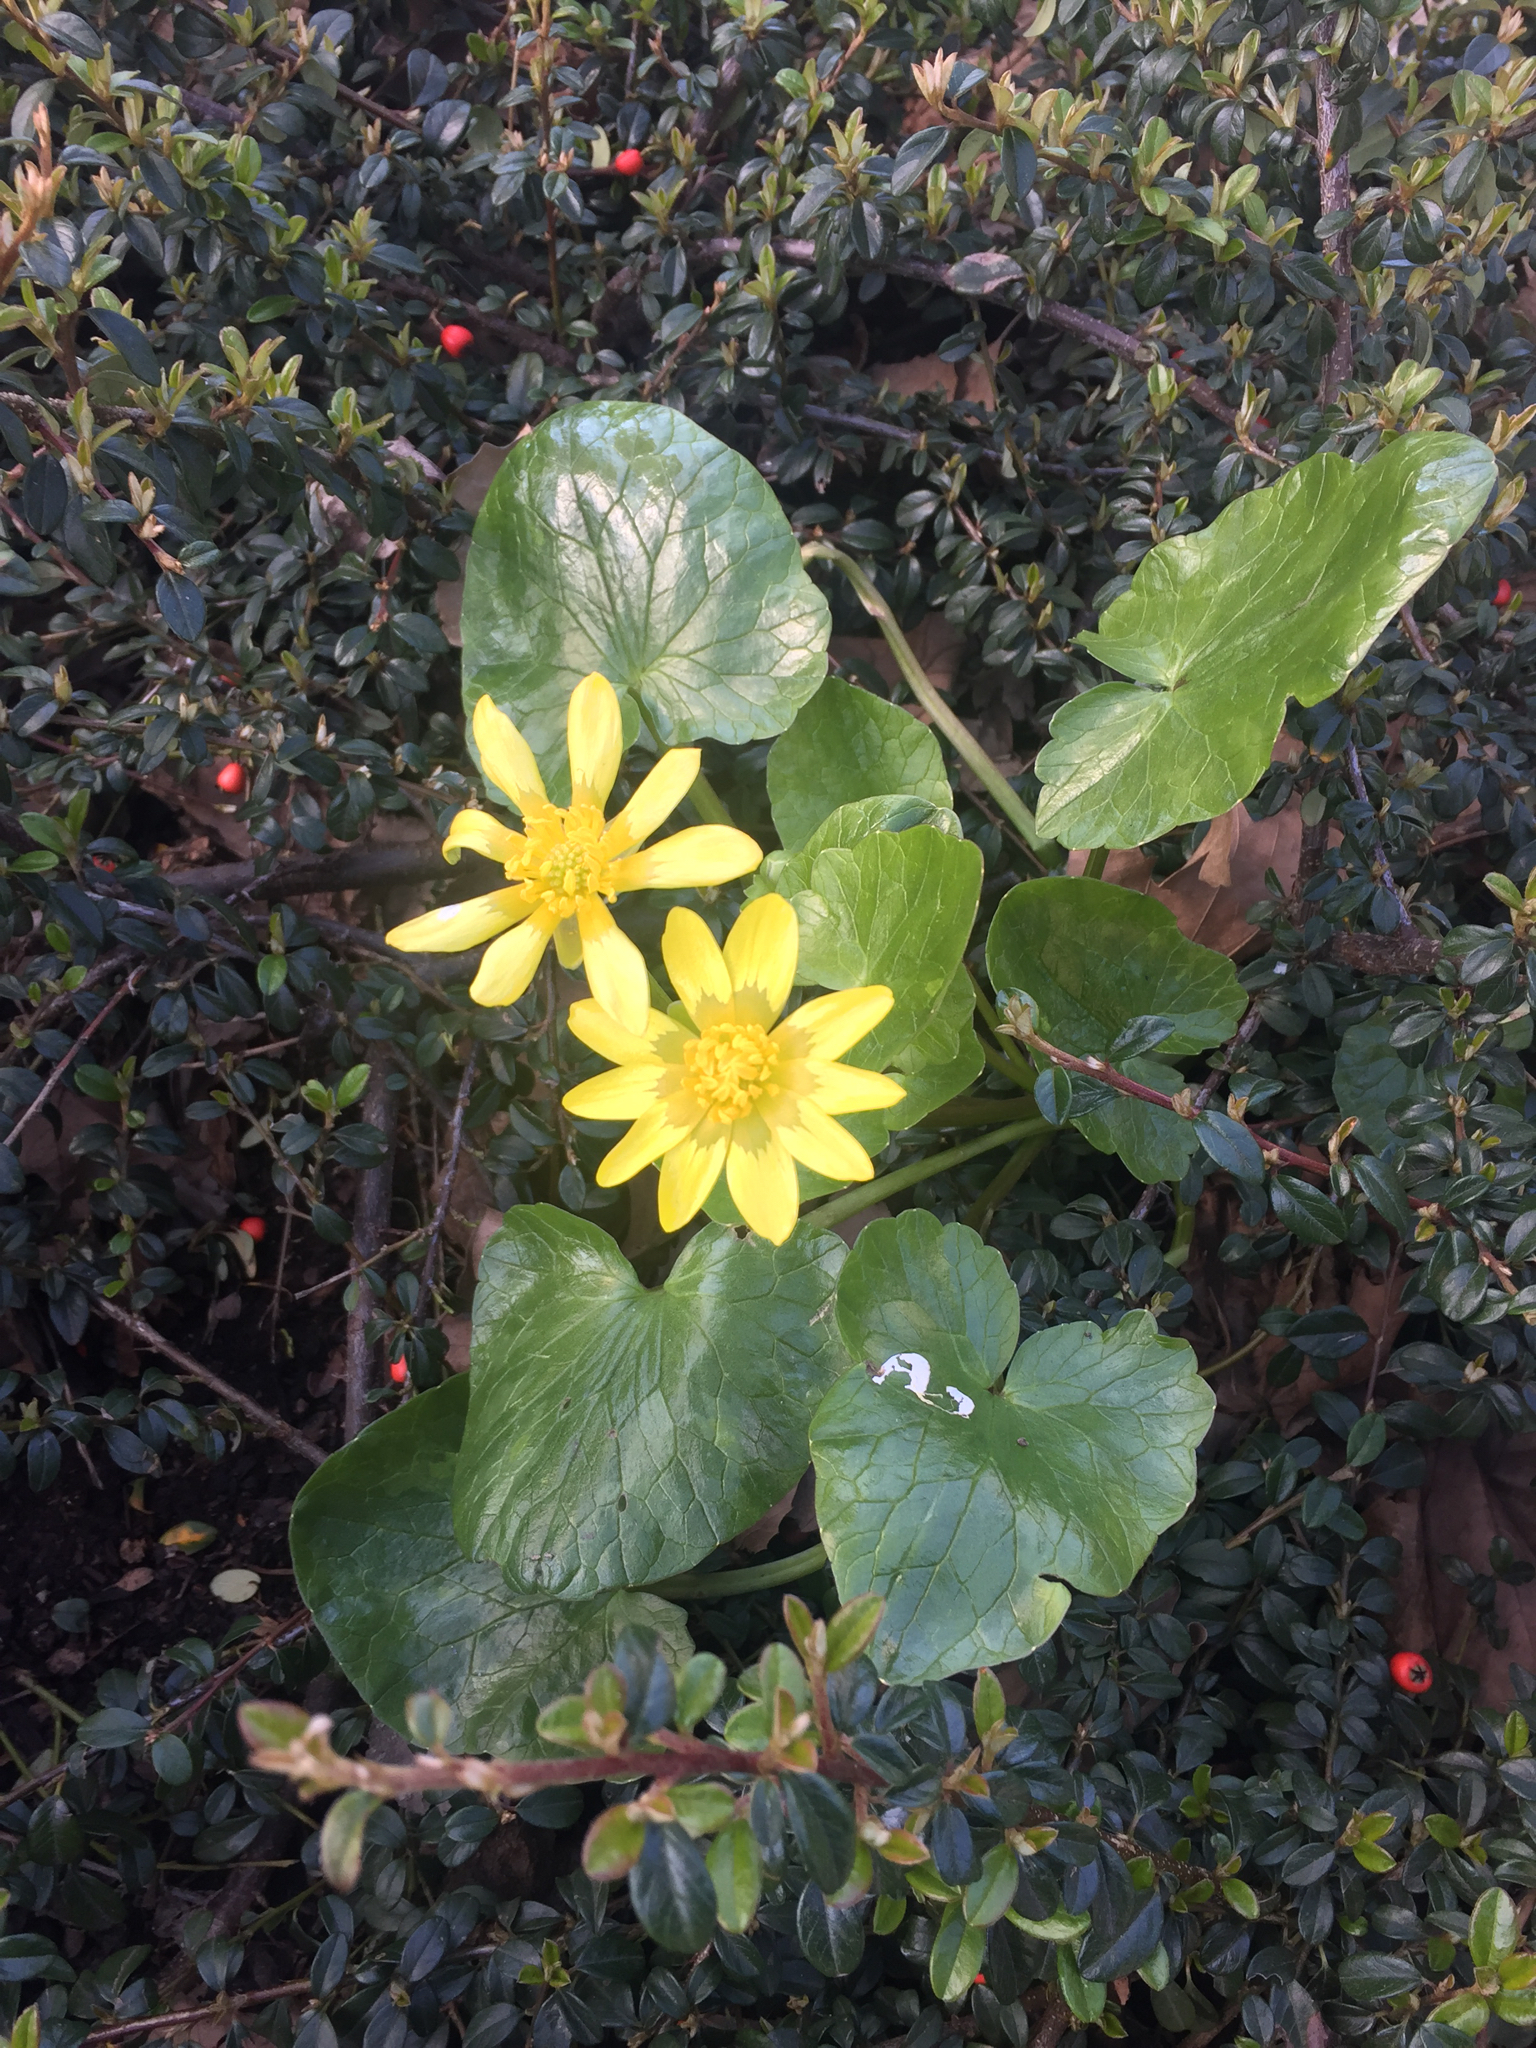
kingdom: Plantae
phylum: Tracheophyta
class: Magnoliopsida
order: Ranunculales
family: Ranunculaceae
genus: Ficaria
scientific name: Ficaria verna
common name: Lesser celandine
